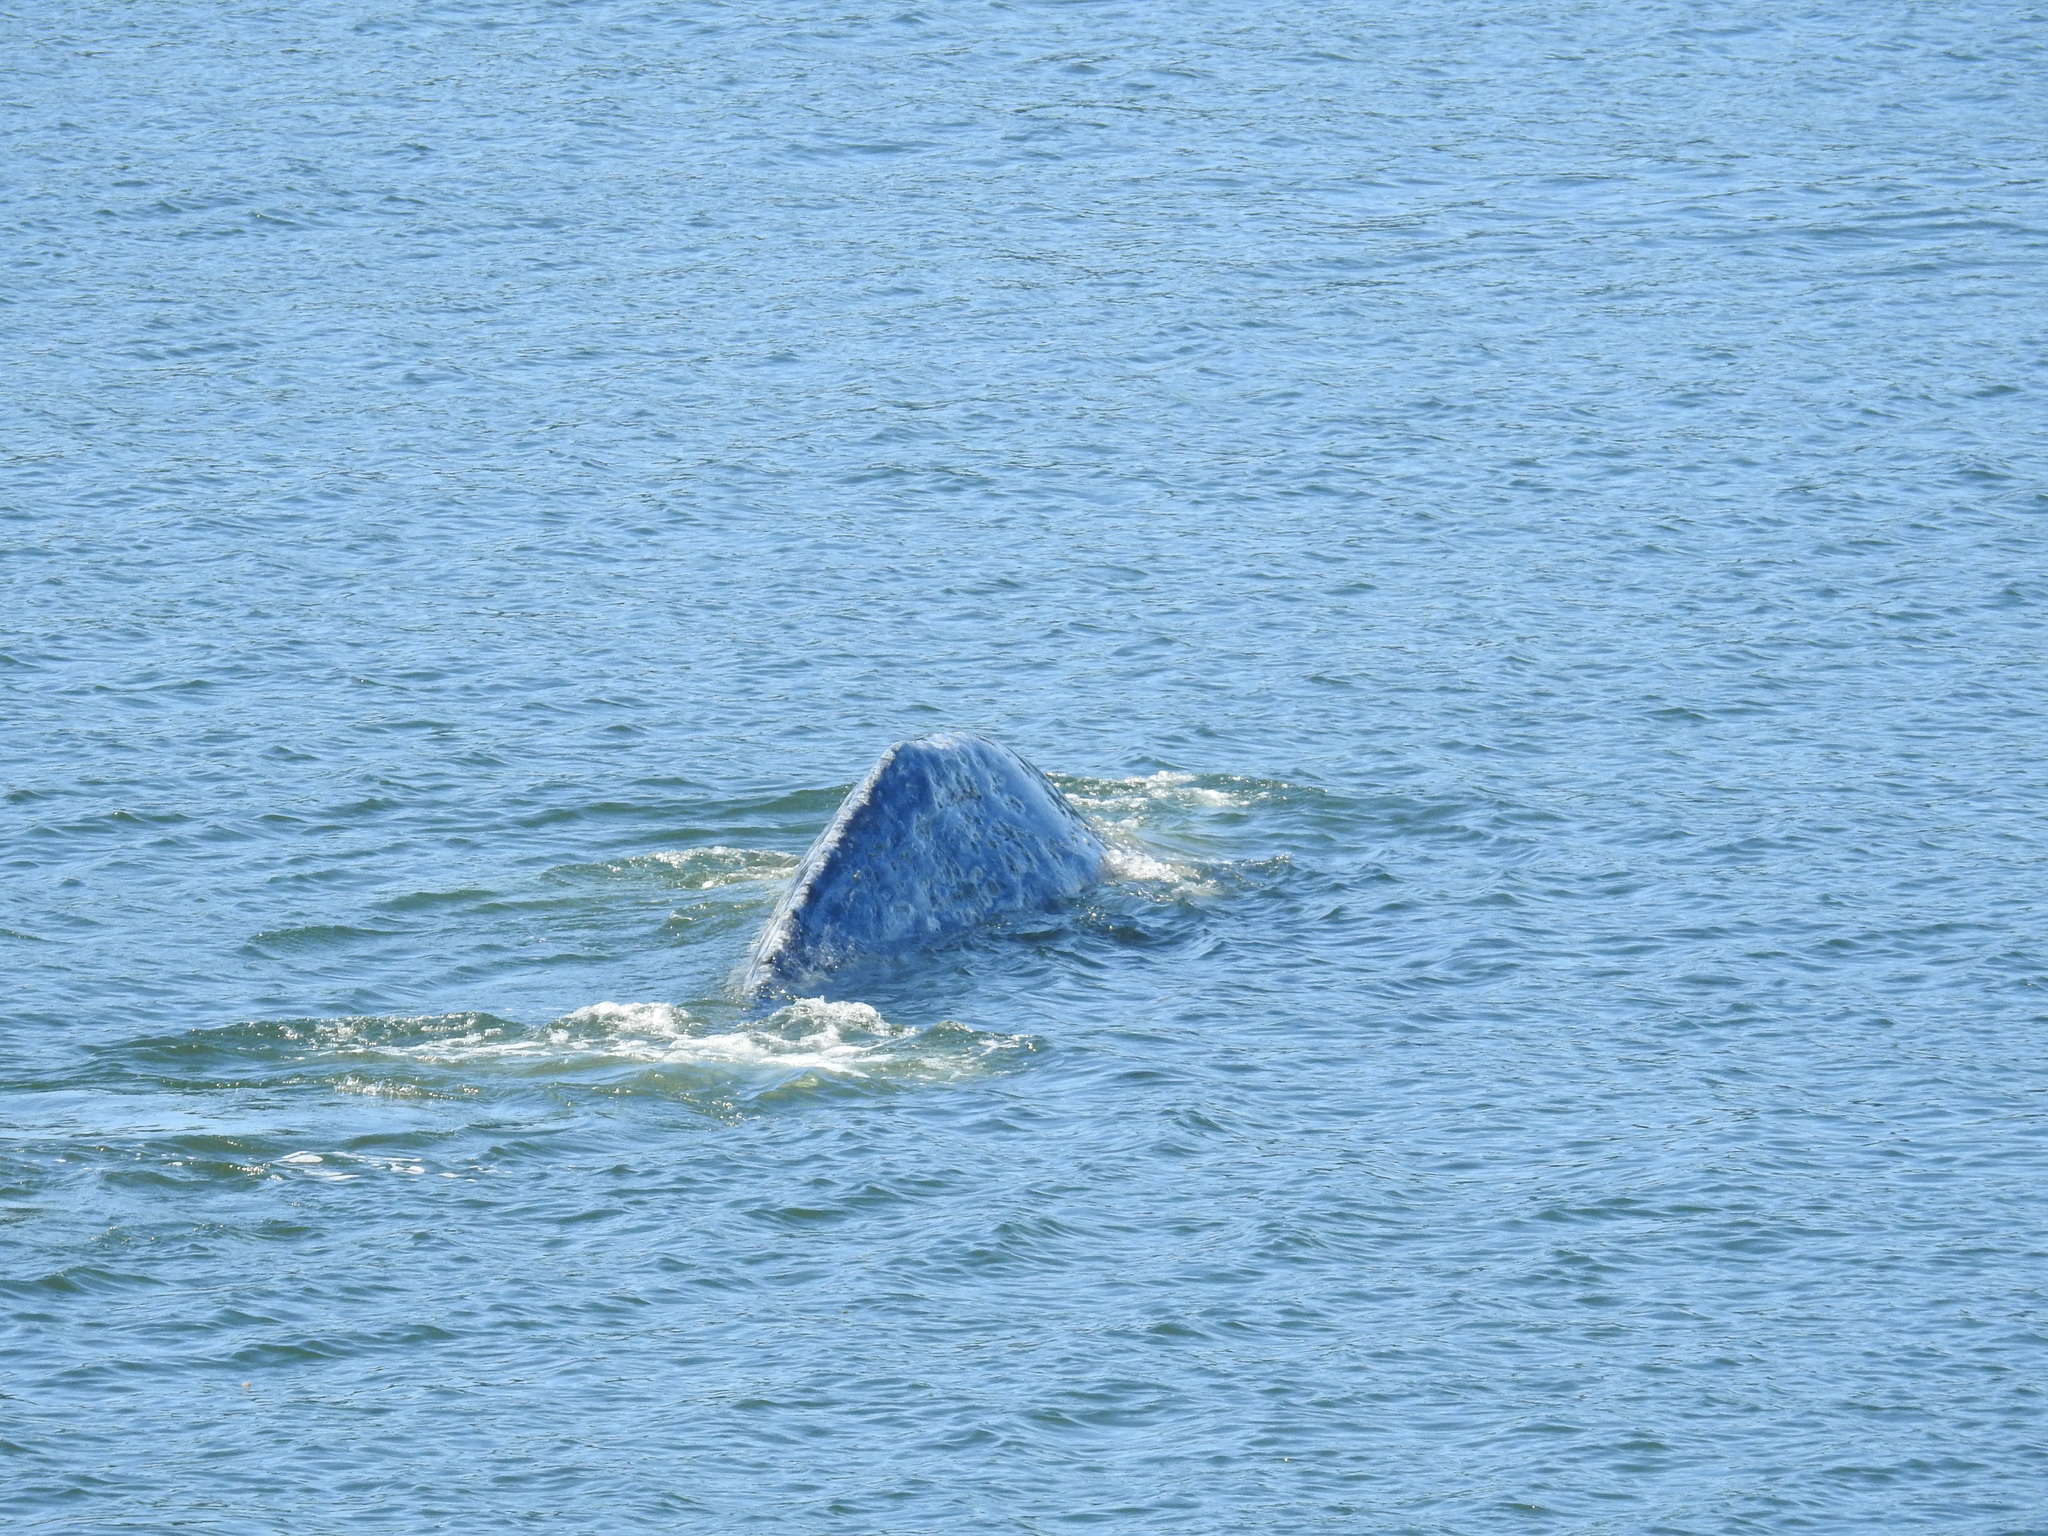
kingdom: Animalia
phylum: Chordata
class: Mammalia
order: Cetacea
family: Eschrichtiidae
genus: Eschrichtius
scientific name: Eschrichtius robustus
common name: Gray whale
